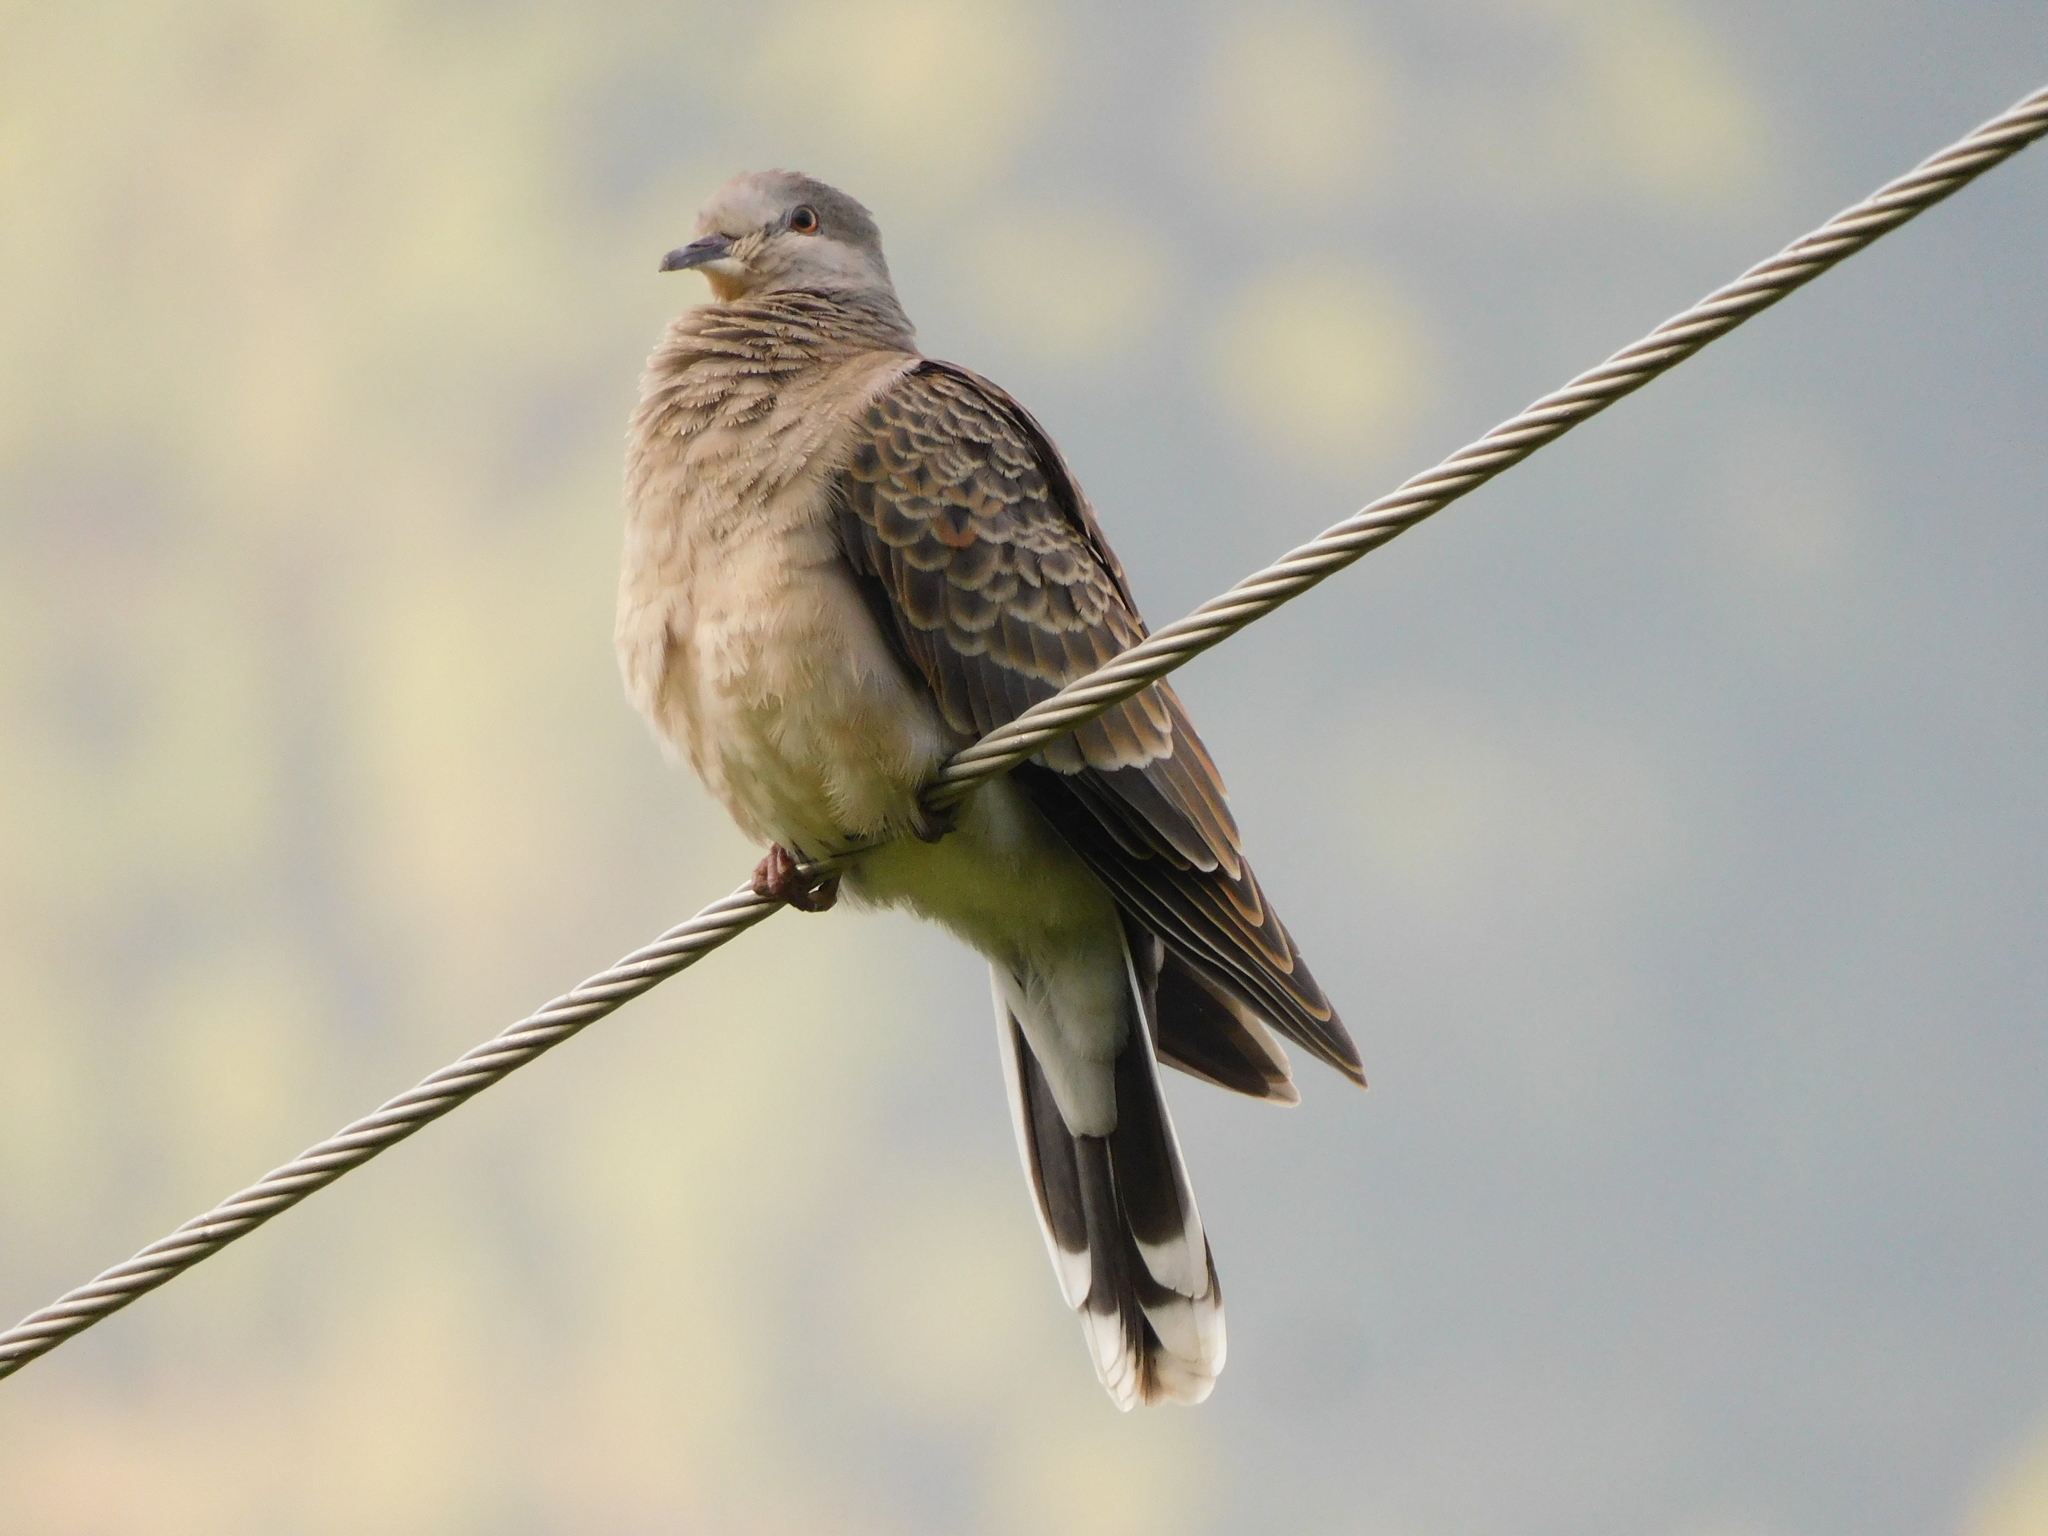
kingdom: Animalia
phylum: Chordata
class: Aves
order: Columbiformes
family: Columbidae
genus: Streptopelia
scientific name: Streptopelia orientalis
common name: Oriental turtle dove
